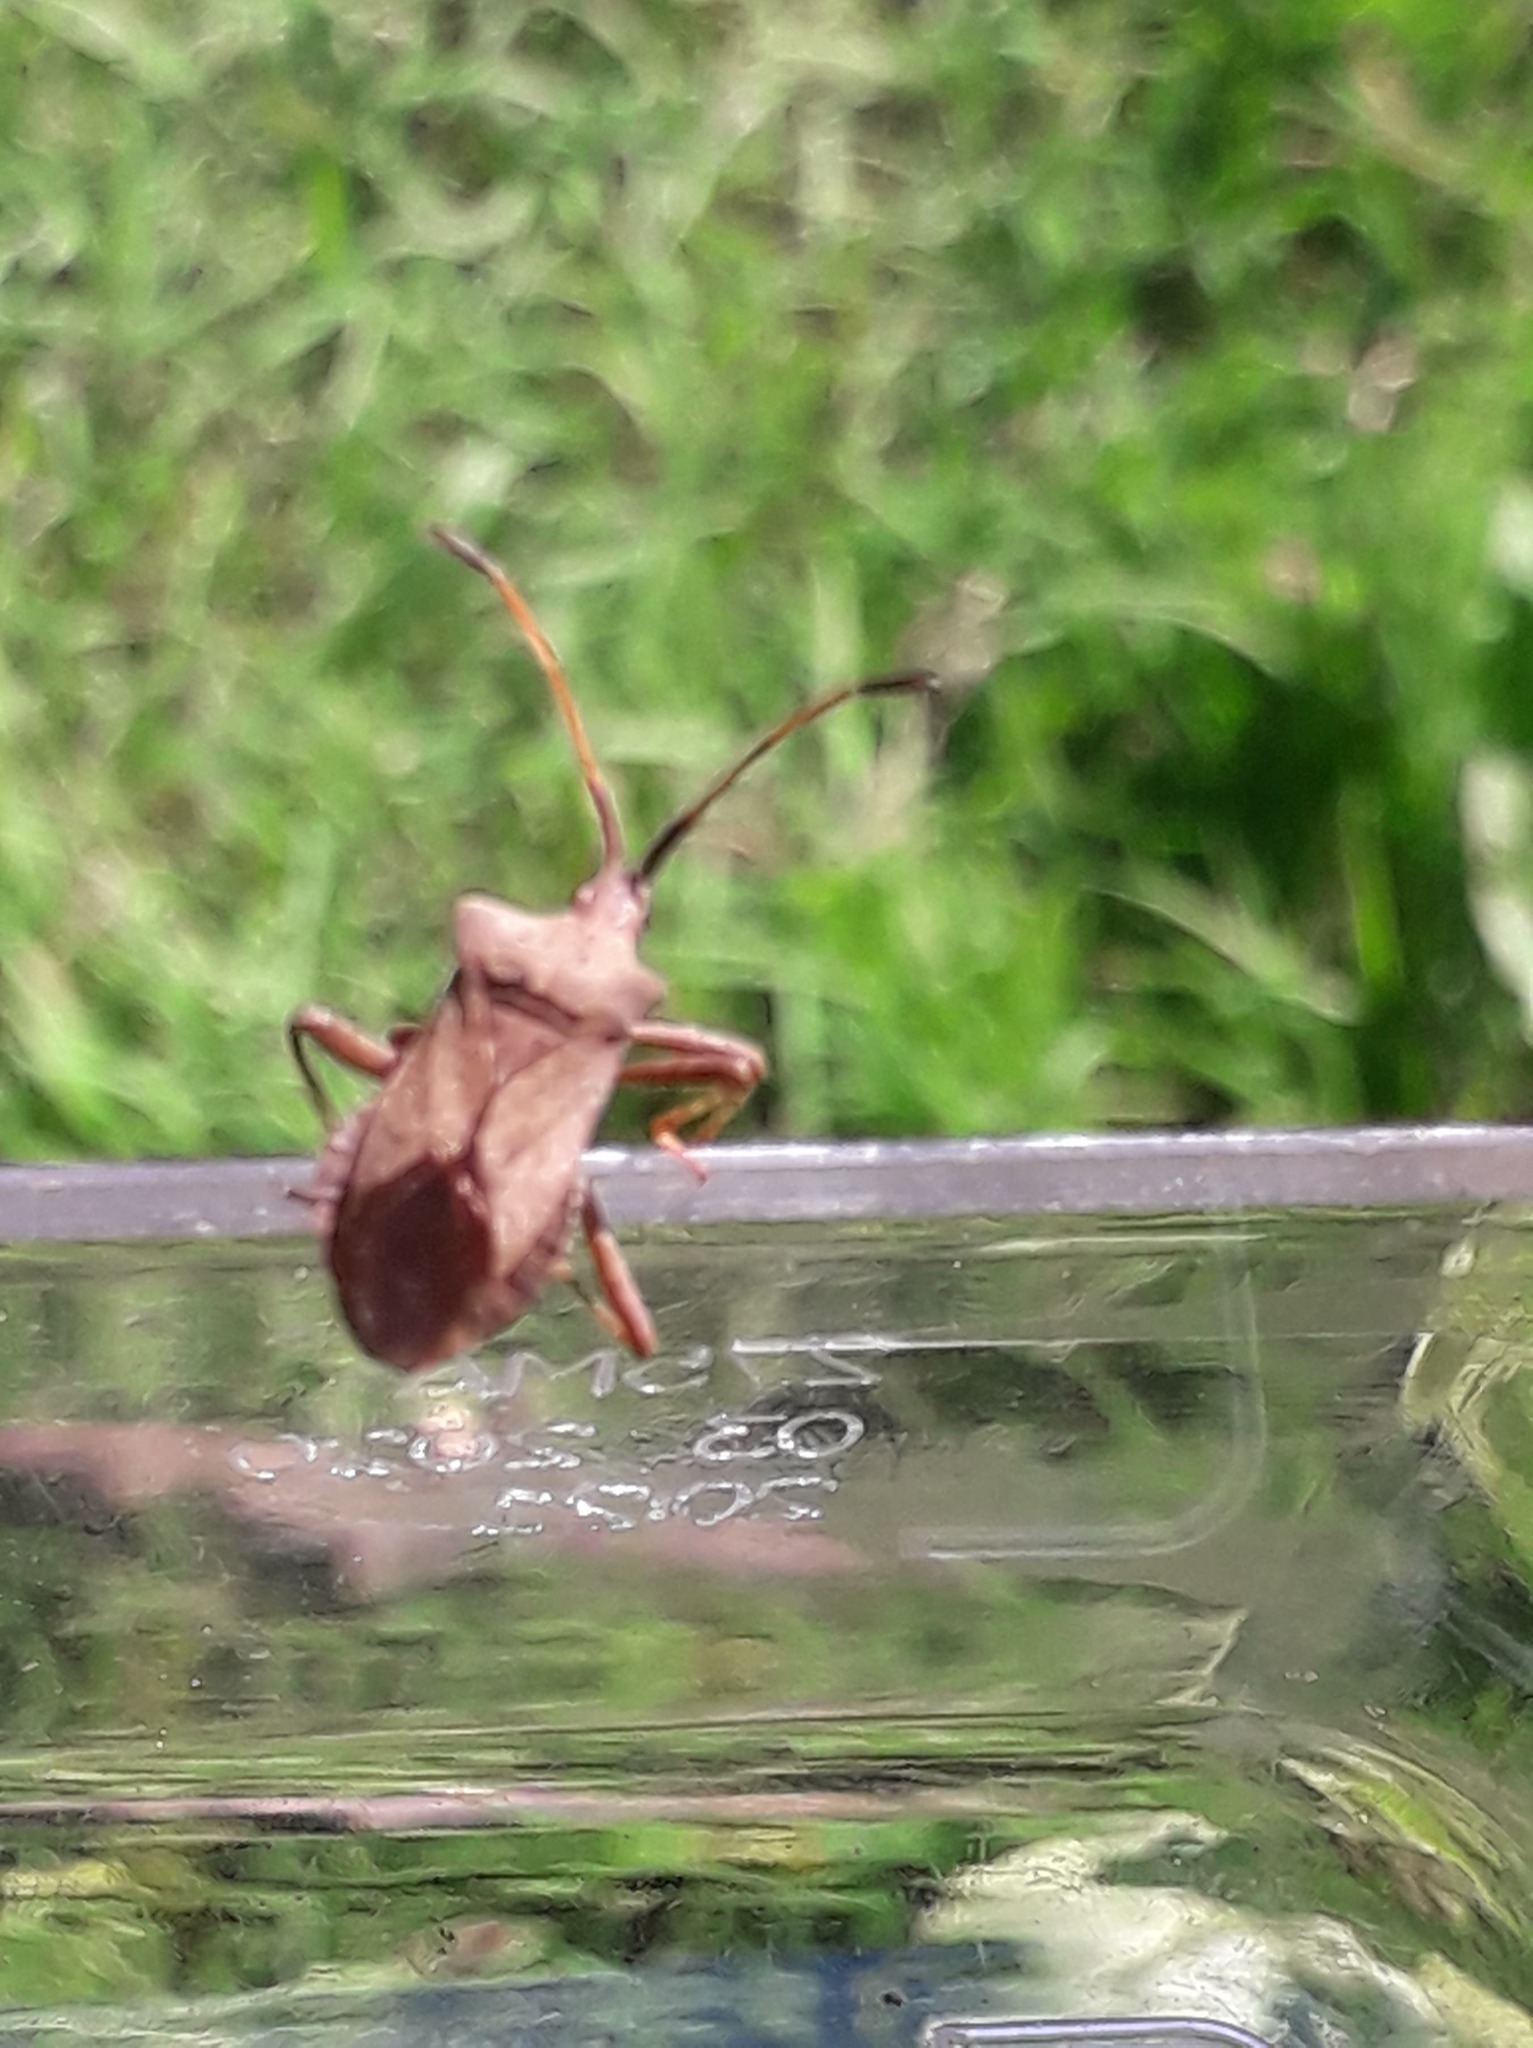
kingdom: Animalia
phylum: Arthropoda
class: Insecta
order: Hemiptera
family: Coreidae
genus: Coreus
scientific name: Coreus marginatus
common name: Dock bug
